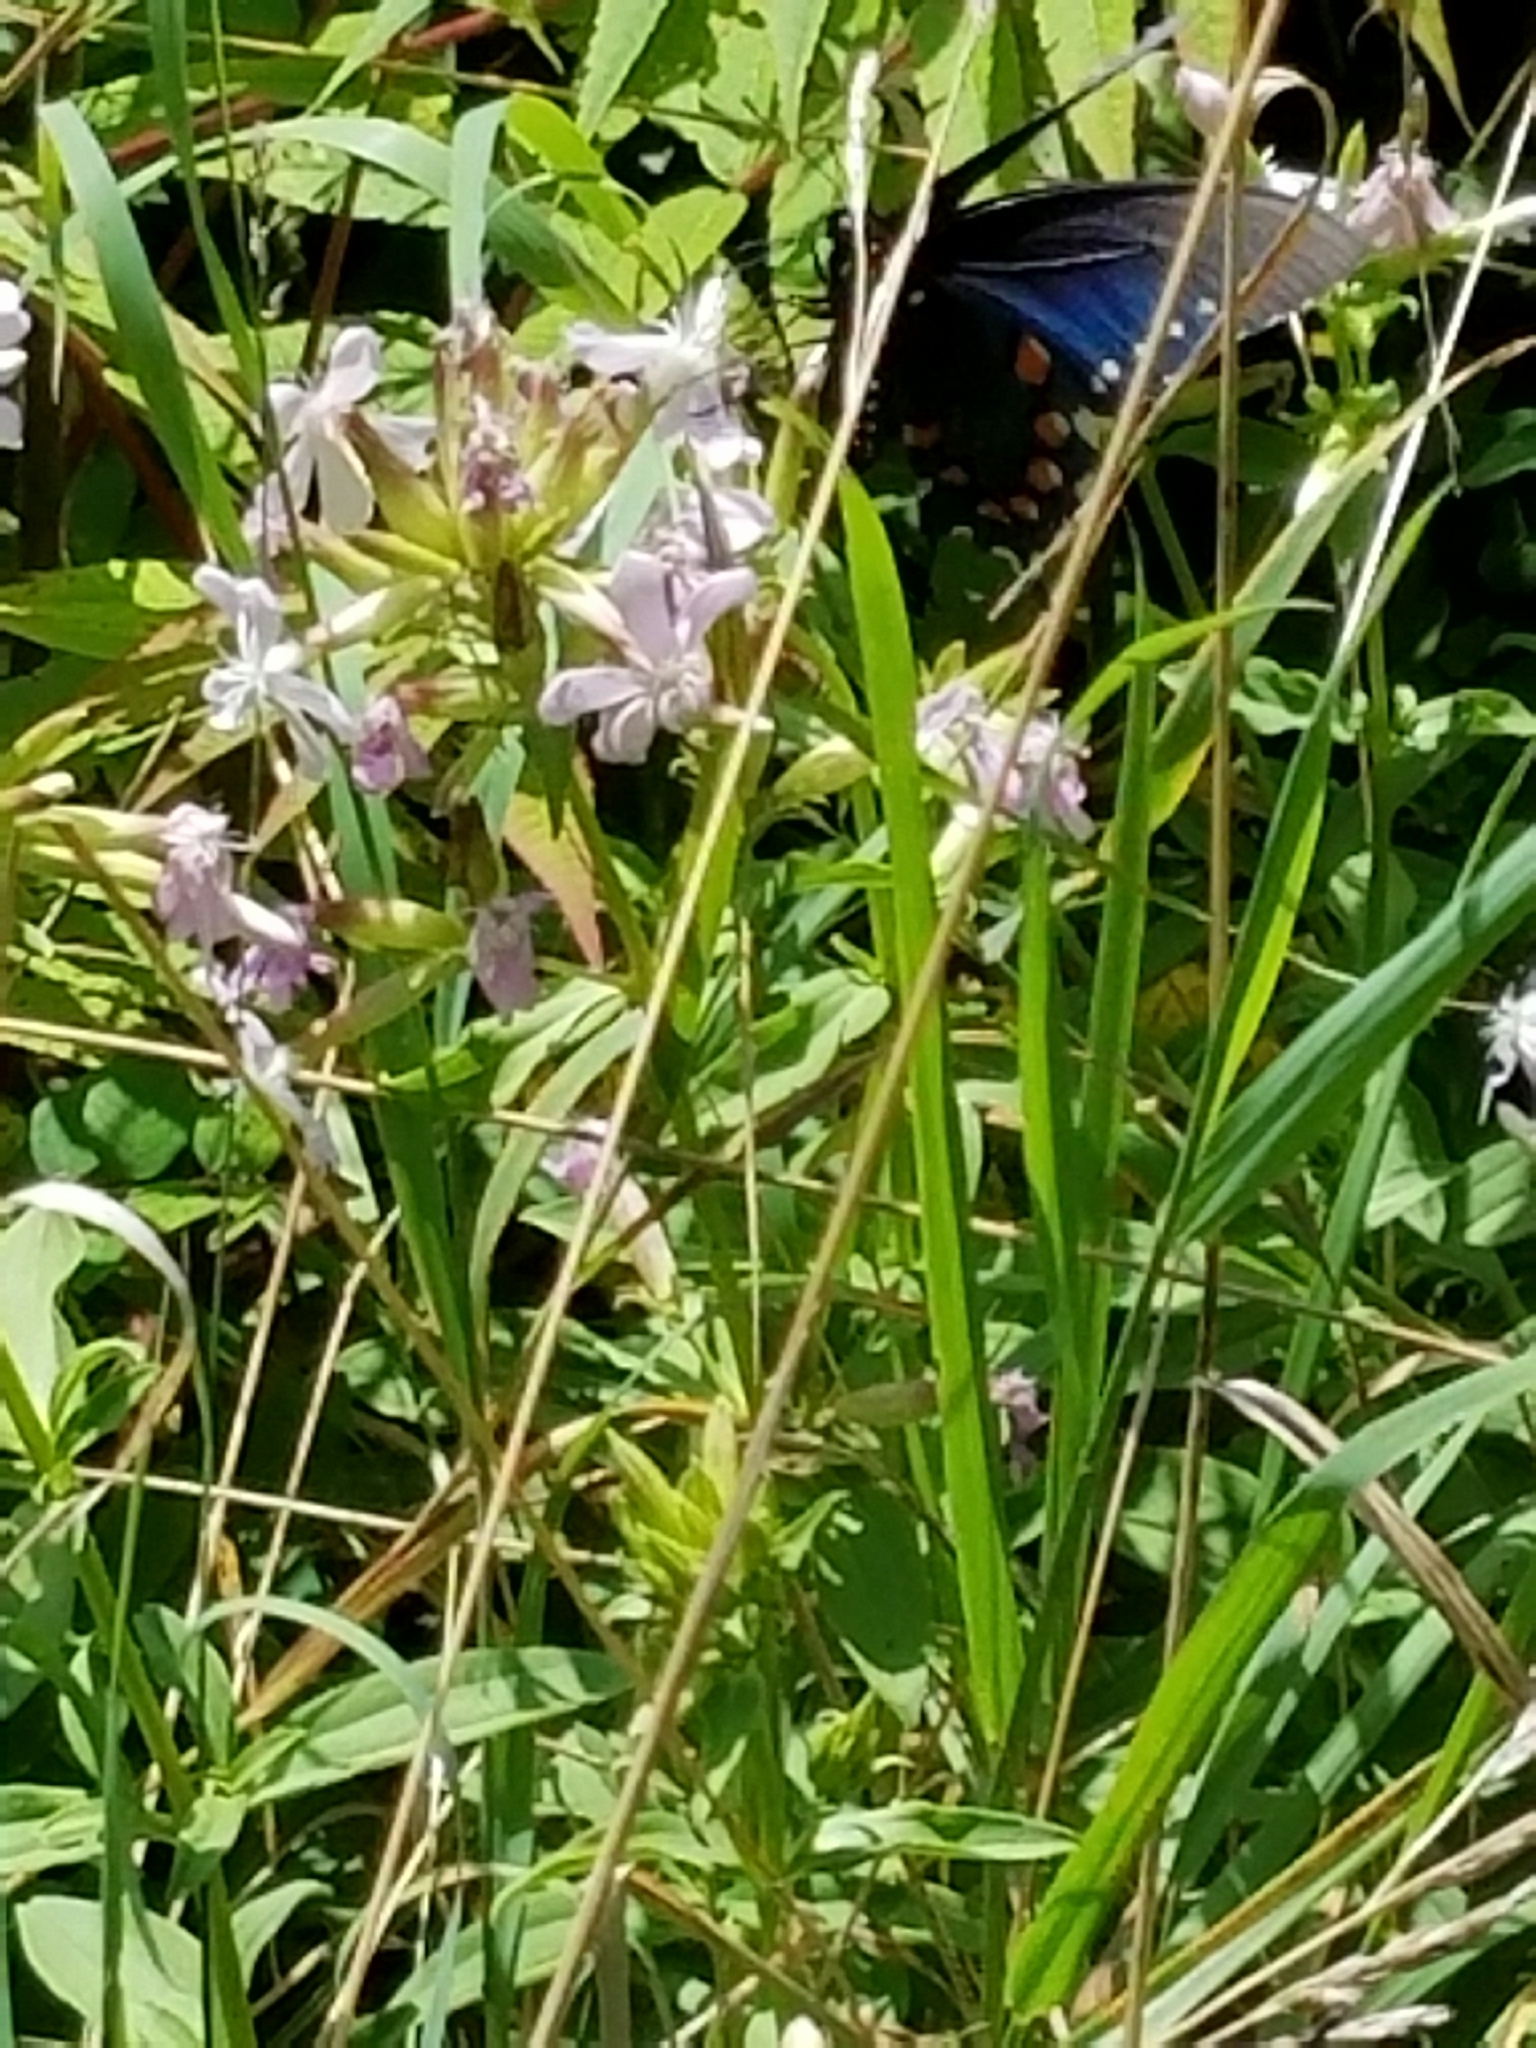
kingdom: Animalia
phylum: Arthropoda
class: Insecta
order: Lepidoptera
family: Papilionidae
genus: Battus
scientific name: Battus philenor
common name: Pipevine swallowtail
